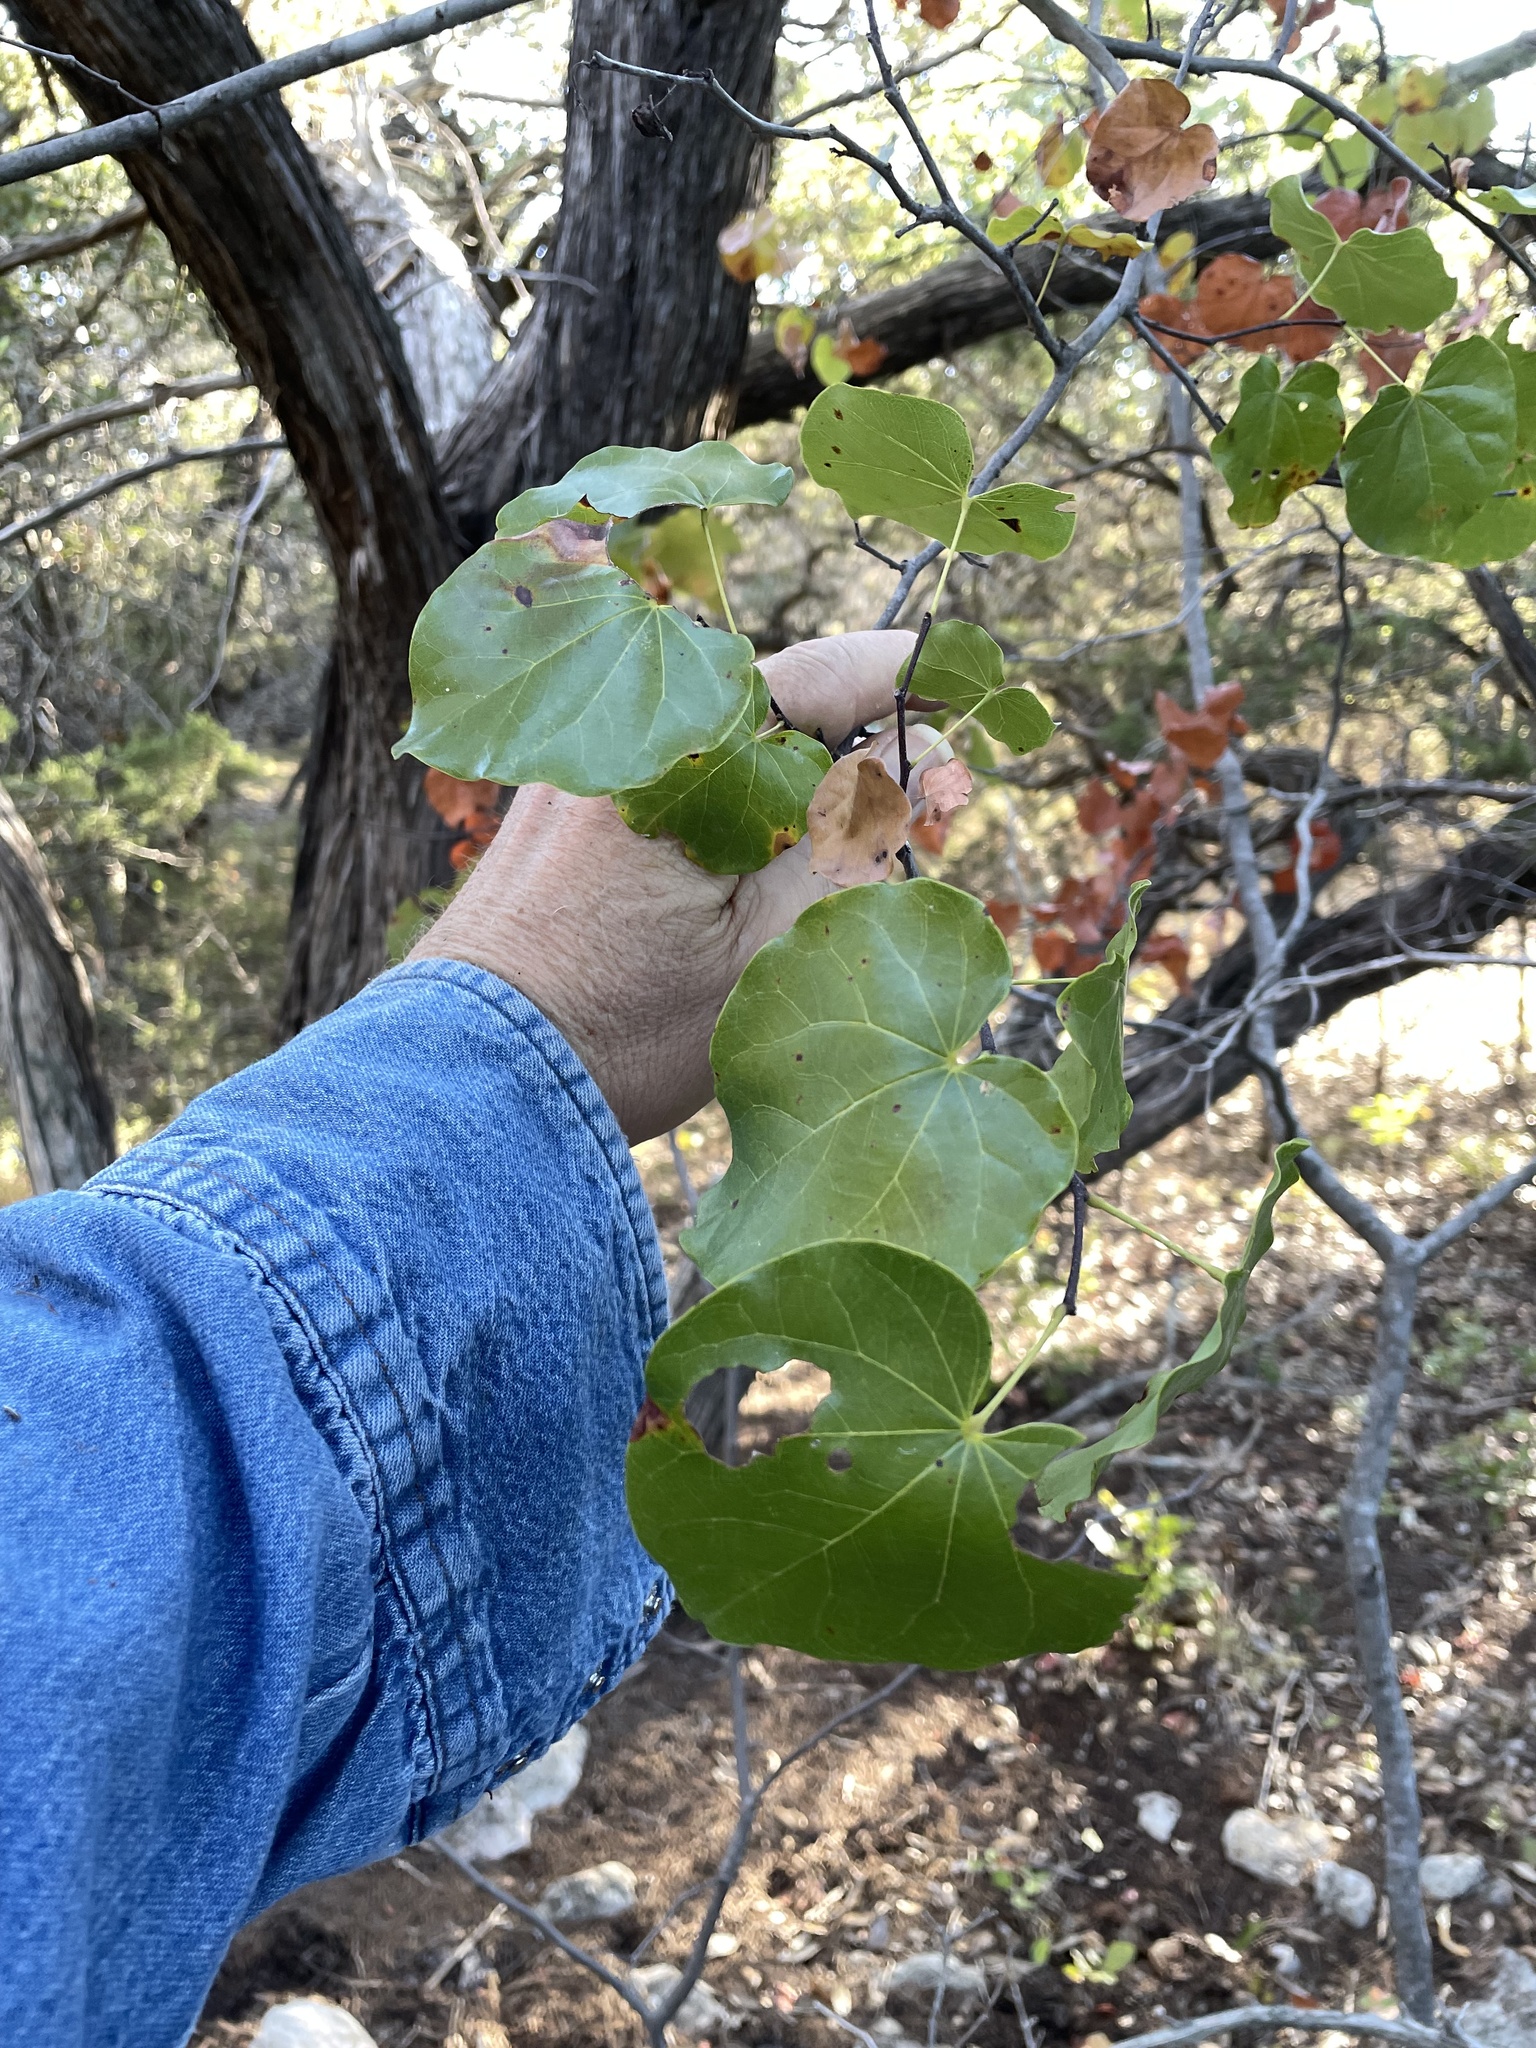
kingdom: Plantae
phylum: Tracheophyta
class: Magnoliopsida
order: Fabales
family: Fabaceae
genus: Cercis
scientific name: Cercis canadensis
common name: Eastern redbud
